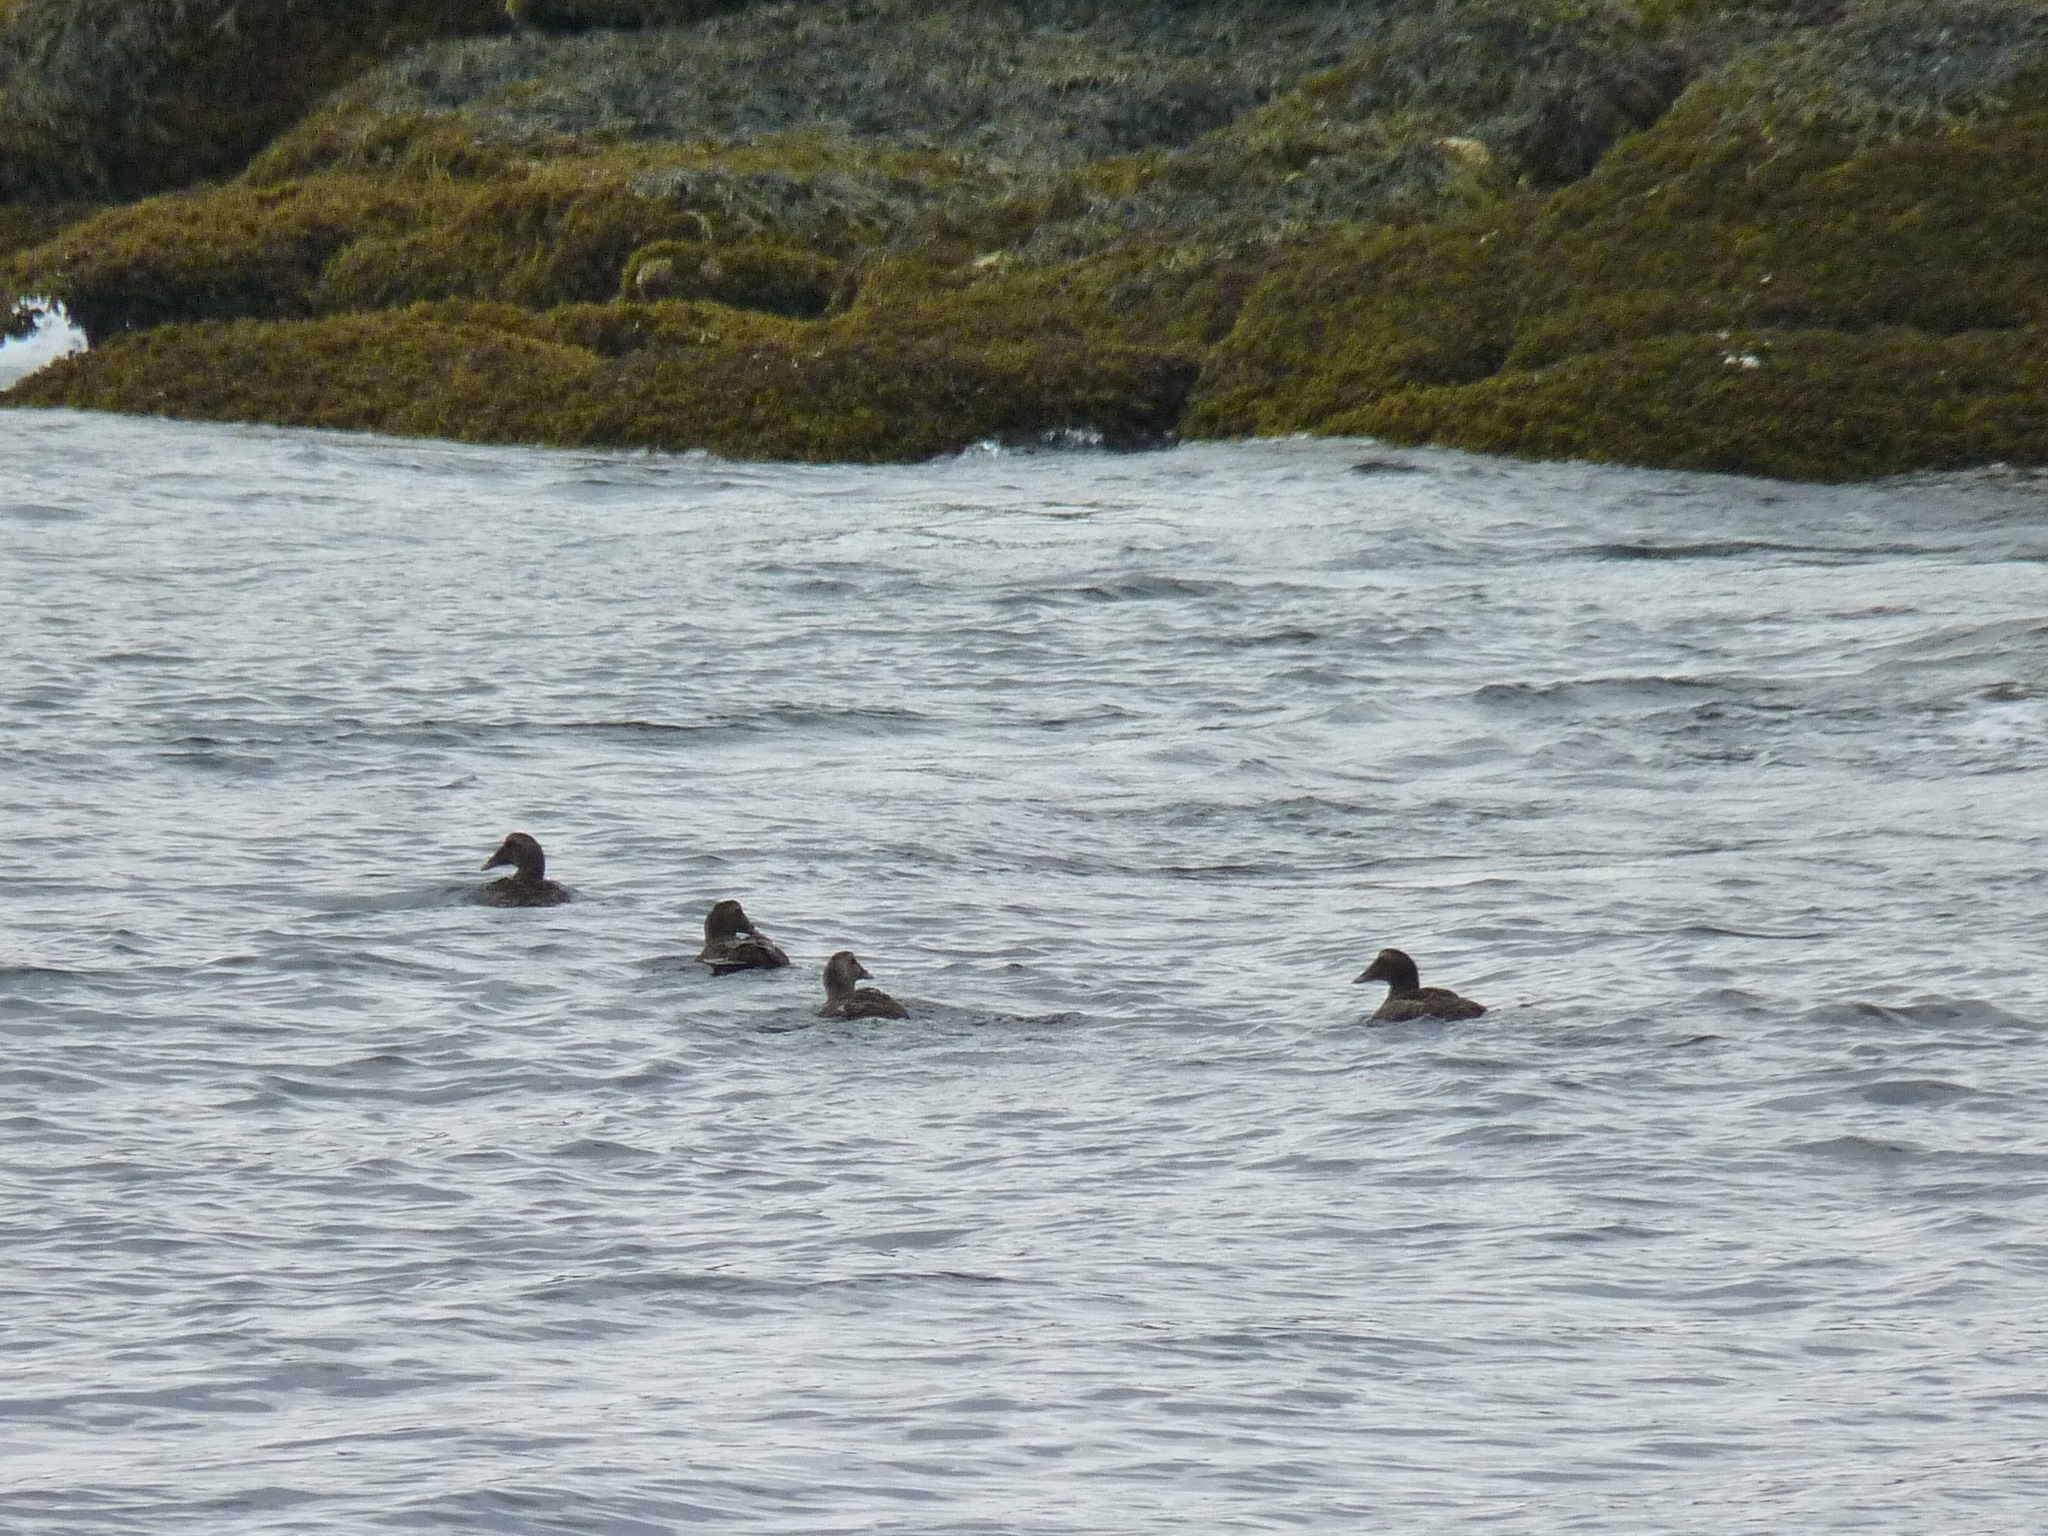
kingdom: Animalia
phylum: Chordata
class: Aves
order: Anseriformes
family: Anatidae
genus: Somateria
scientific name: Somateria mollissima
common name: Common eider
